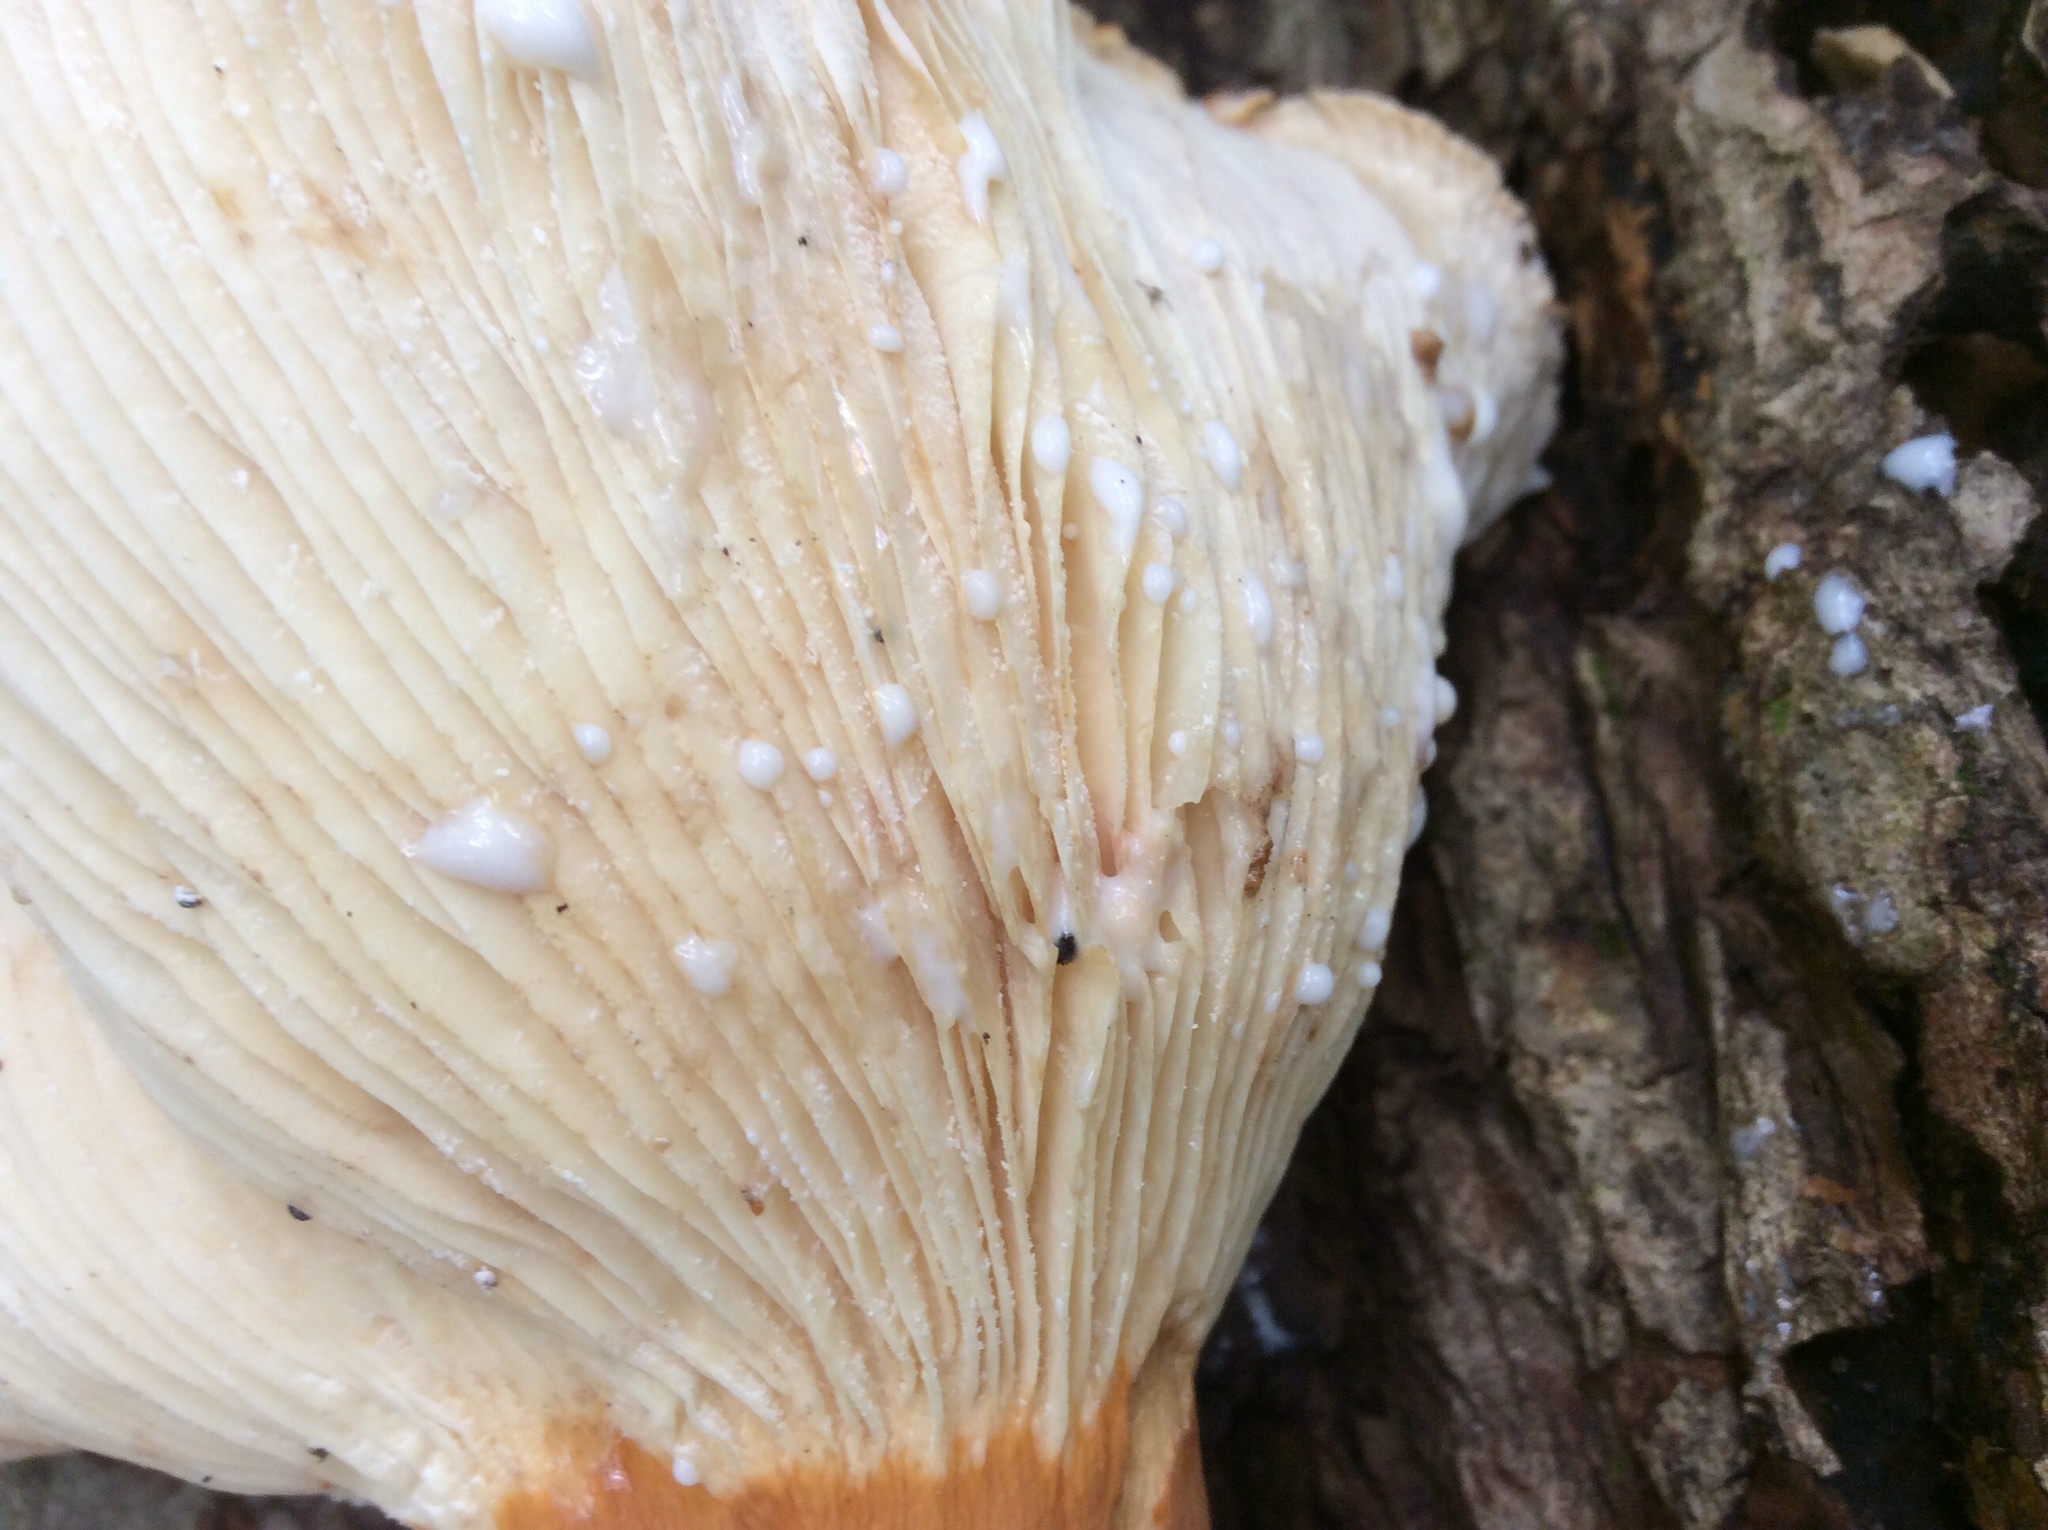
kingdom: Fungi
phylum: Basidiomycota
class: Agaricomycetes
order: Russulales
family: Russulaceae
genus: Lactarius
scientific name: Lactarius corrugis
